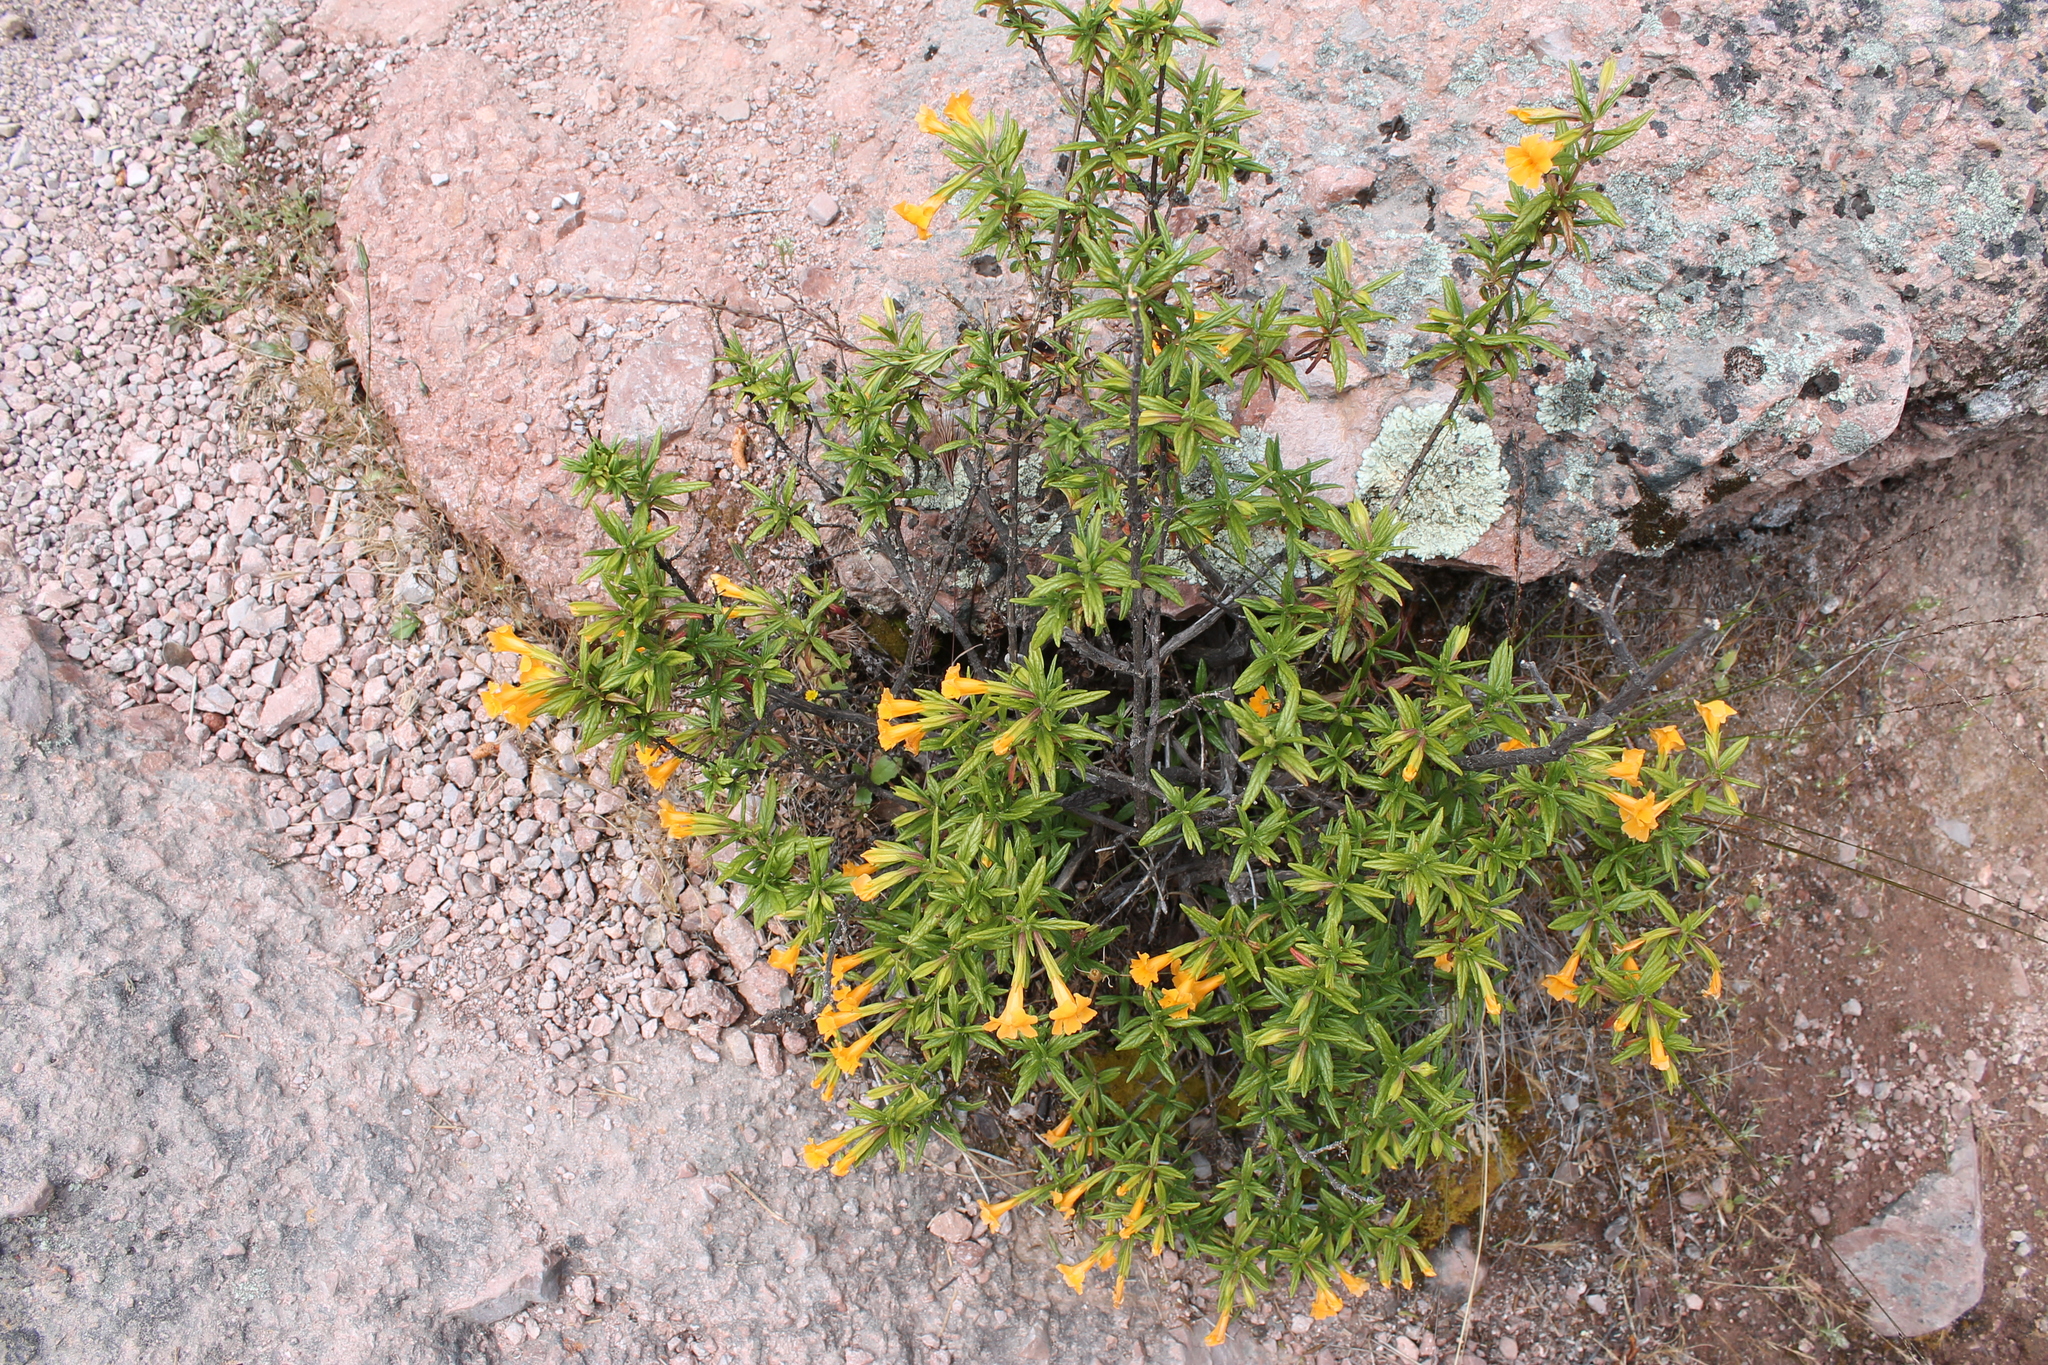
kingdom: Plantae
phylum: Tracheophyta
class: Magnoliopsida
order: Lamiales
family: Phrymaceae
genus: Diplacus
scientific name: Diplacus aurantiacus
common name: Bush monkey-flower
